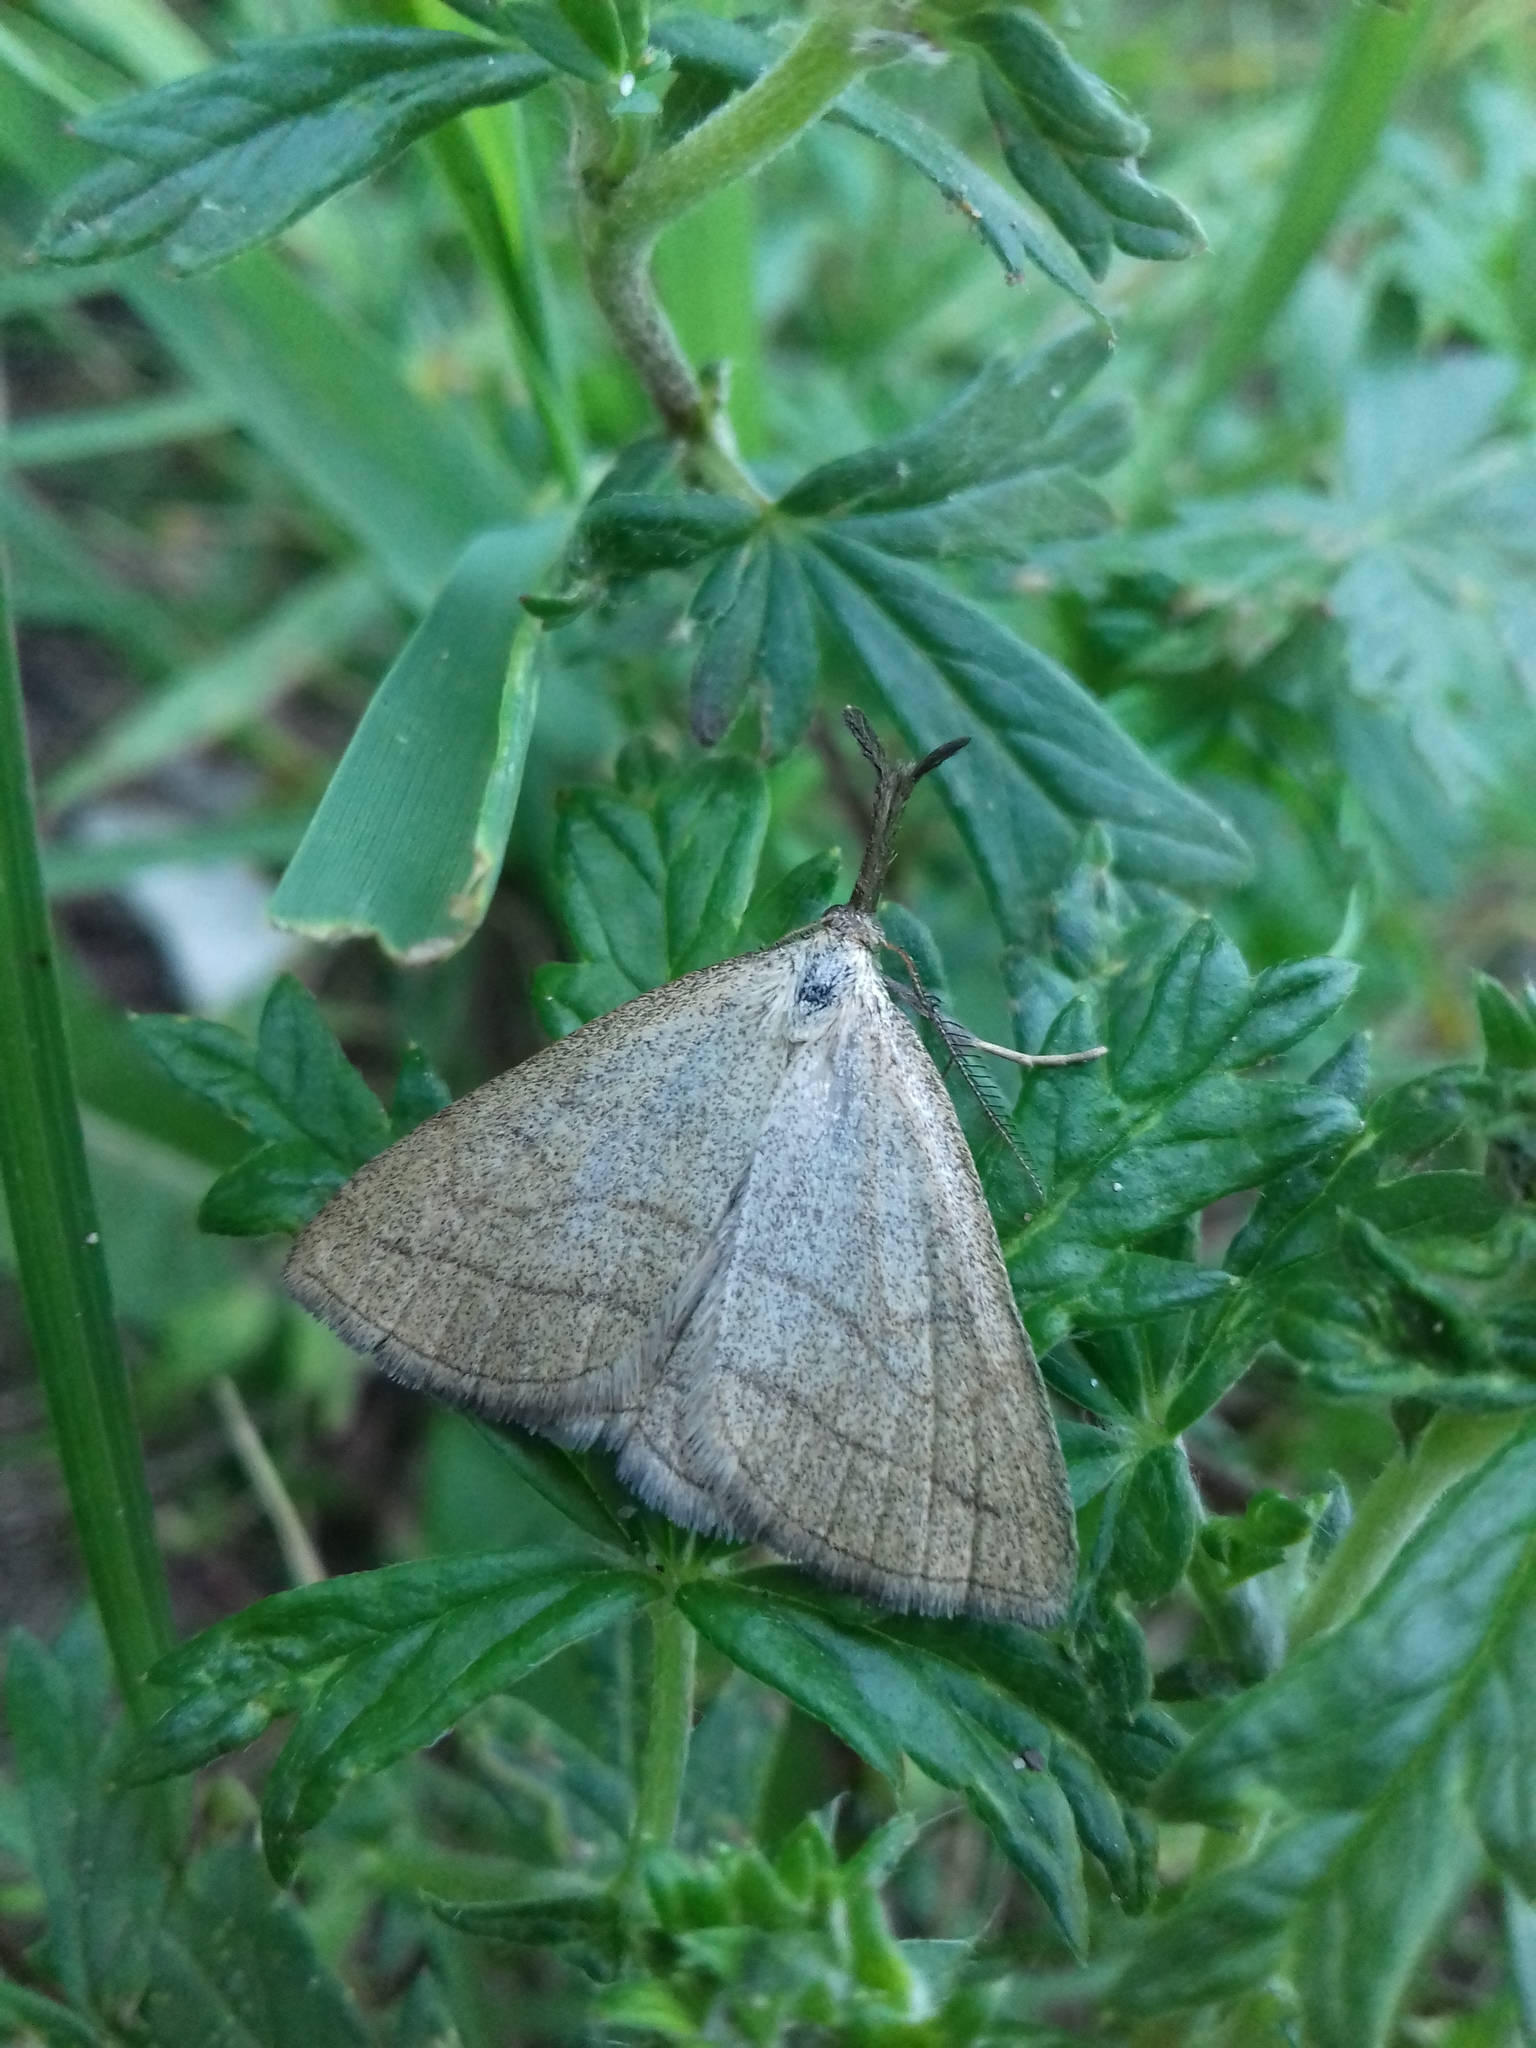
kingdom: Animalia
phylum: Arthropoda
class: Insecta
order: Lepidoptera
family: Erebidae
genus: Polypogon
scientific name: Polypogon tentacularia
